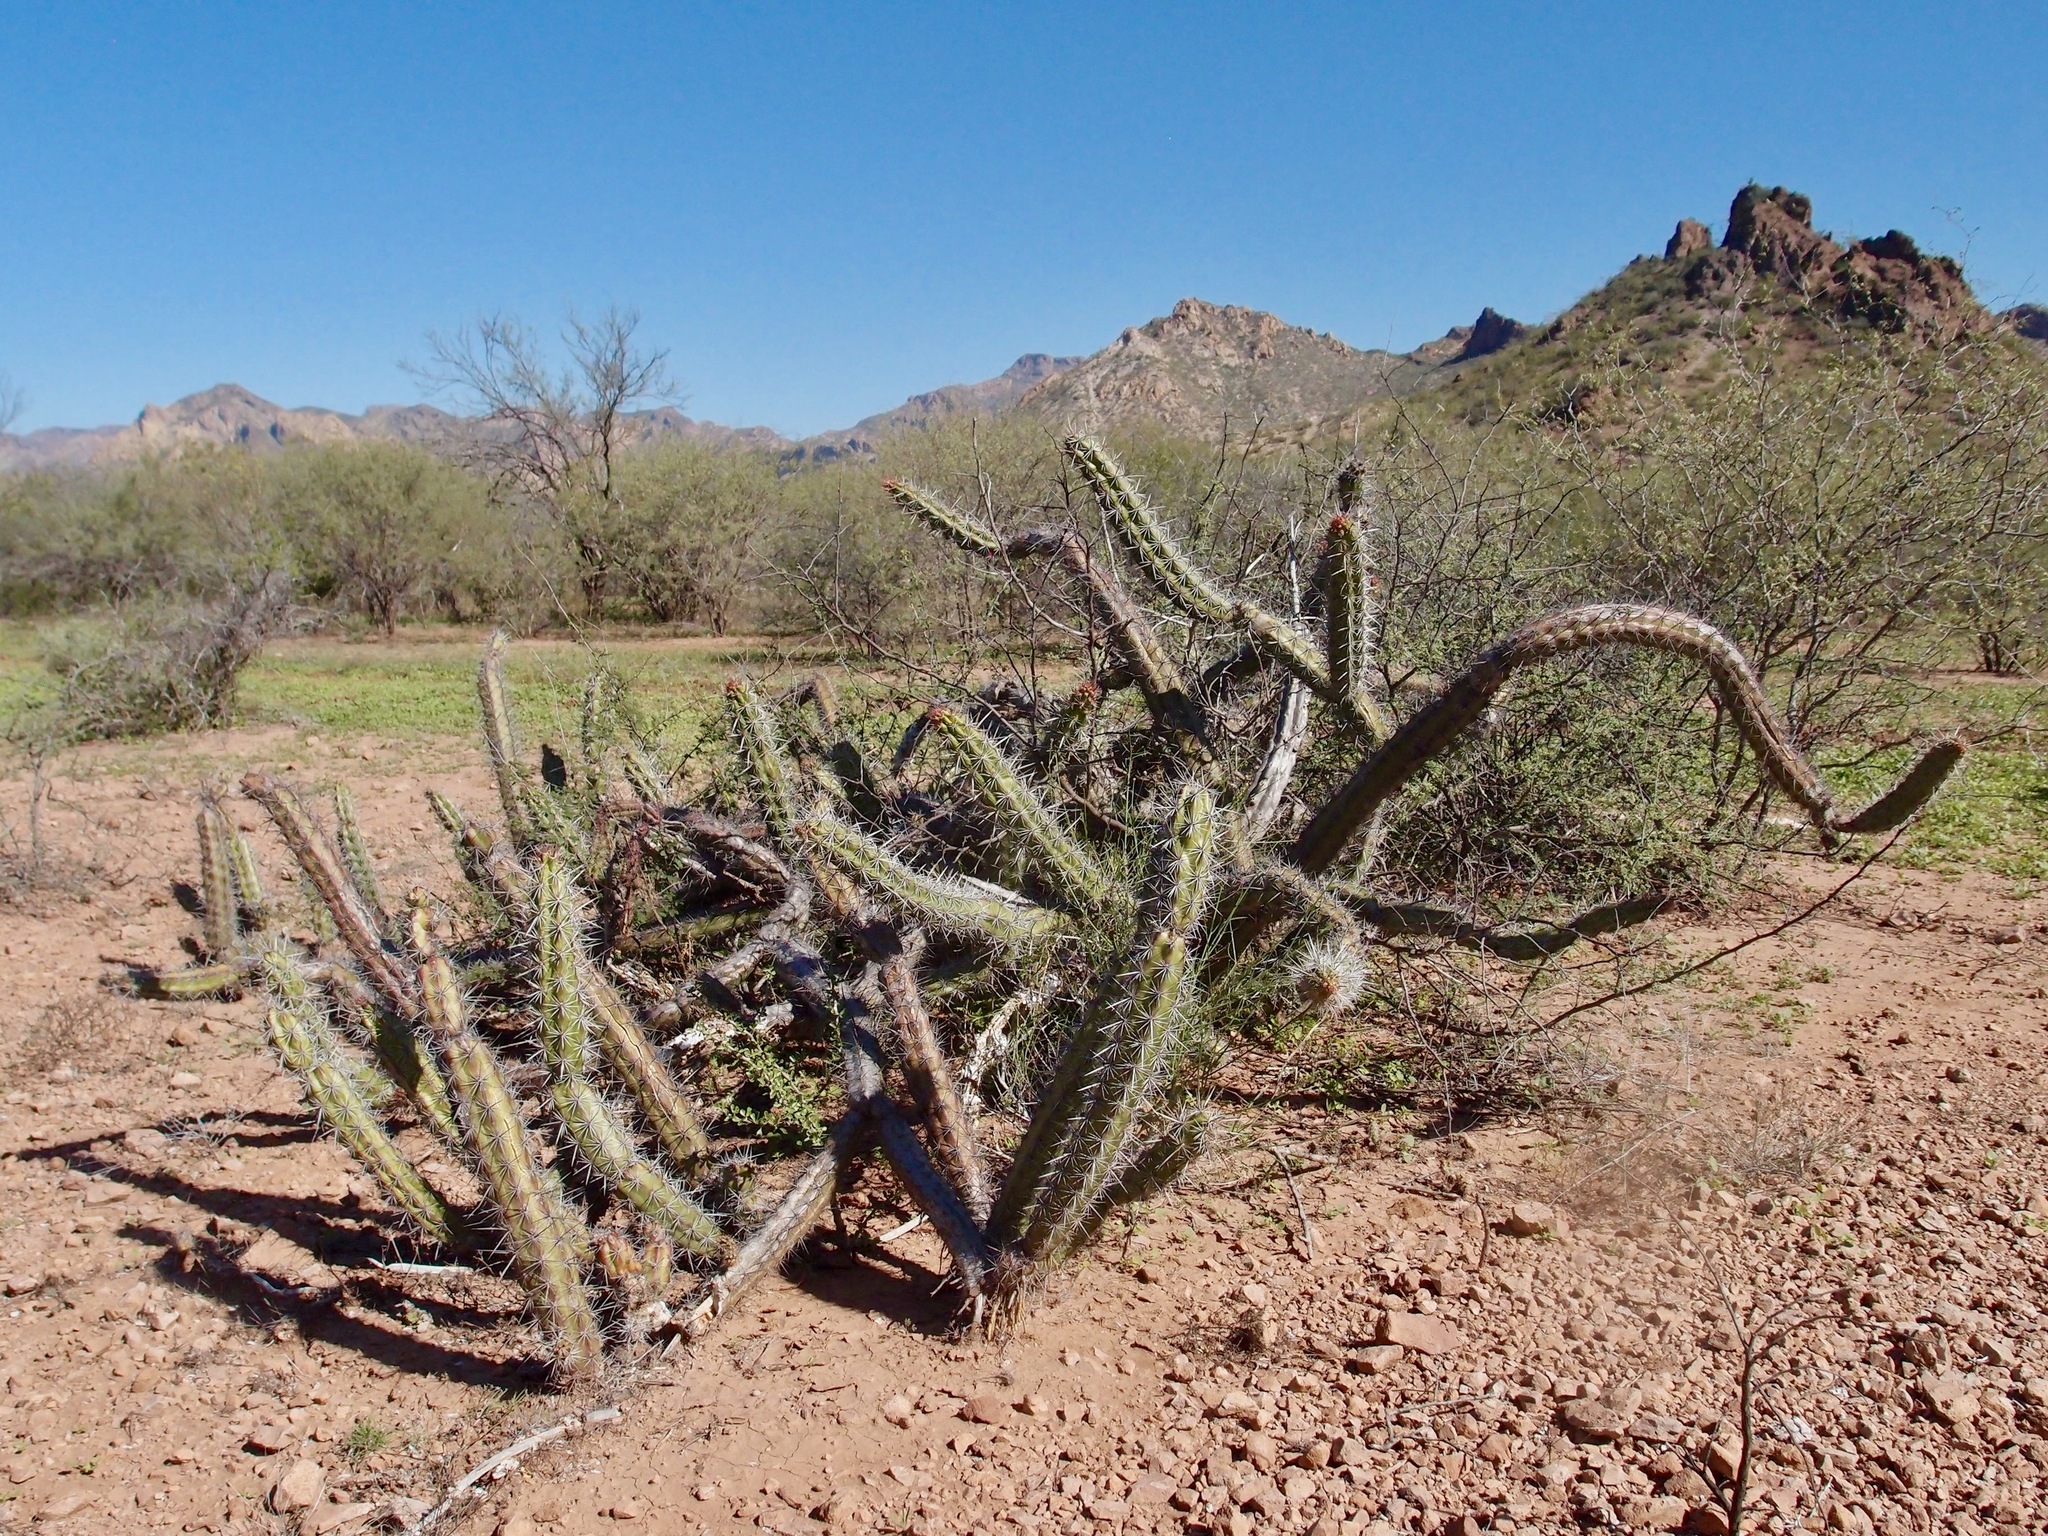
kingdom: Plantae
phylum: Tracheophyta
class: Magnoliopsida
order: Caryophyllales
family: Cactaceae
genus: Stenocereus
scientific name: Stenocereus alamosensis
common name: Octopus cactus
